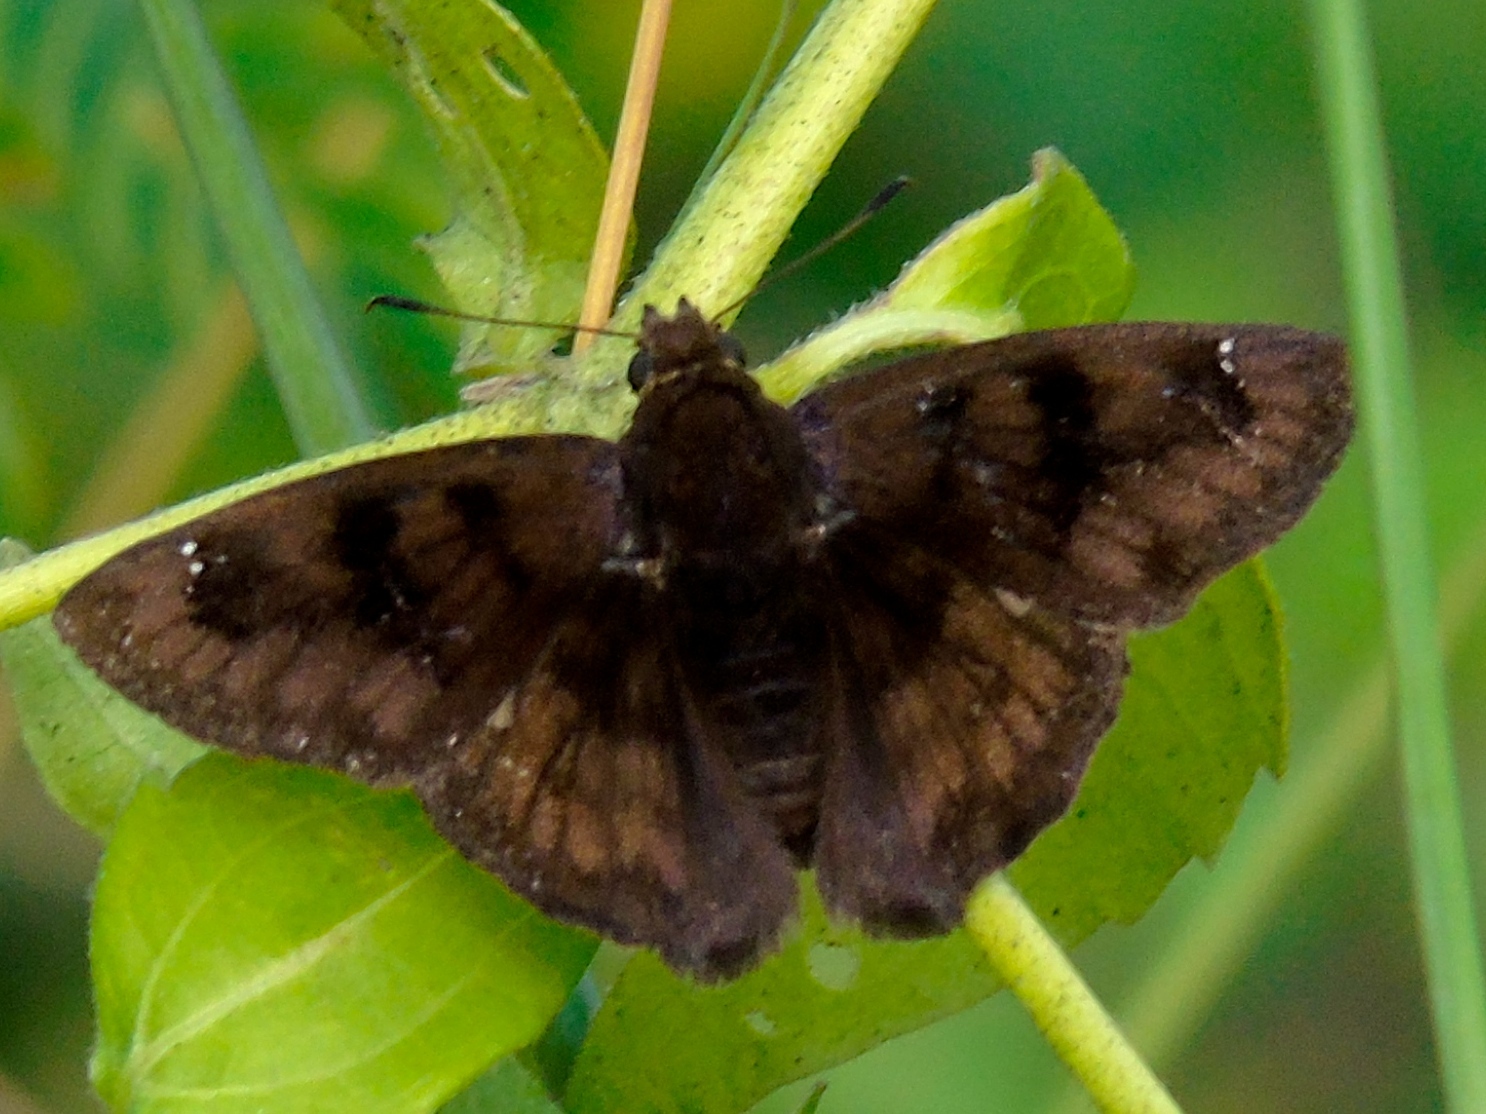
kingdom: Animalia
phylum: Arthropoda
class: Insecta
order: Lepidoptera
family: Hesperiidae
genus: Nisoniades
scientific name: Nisoniades
